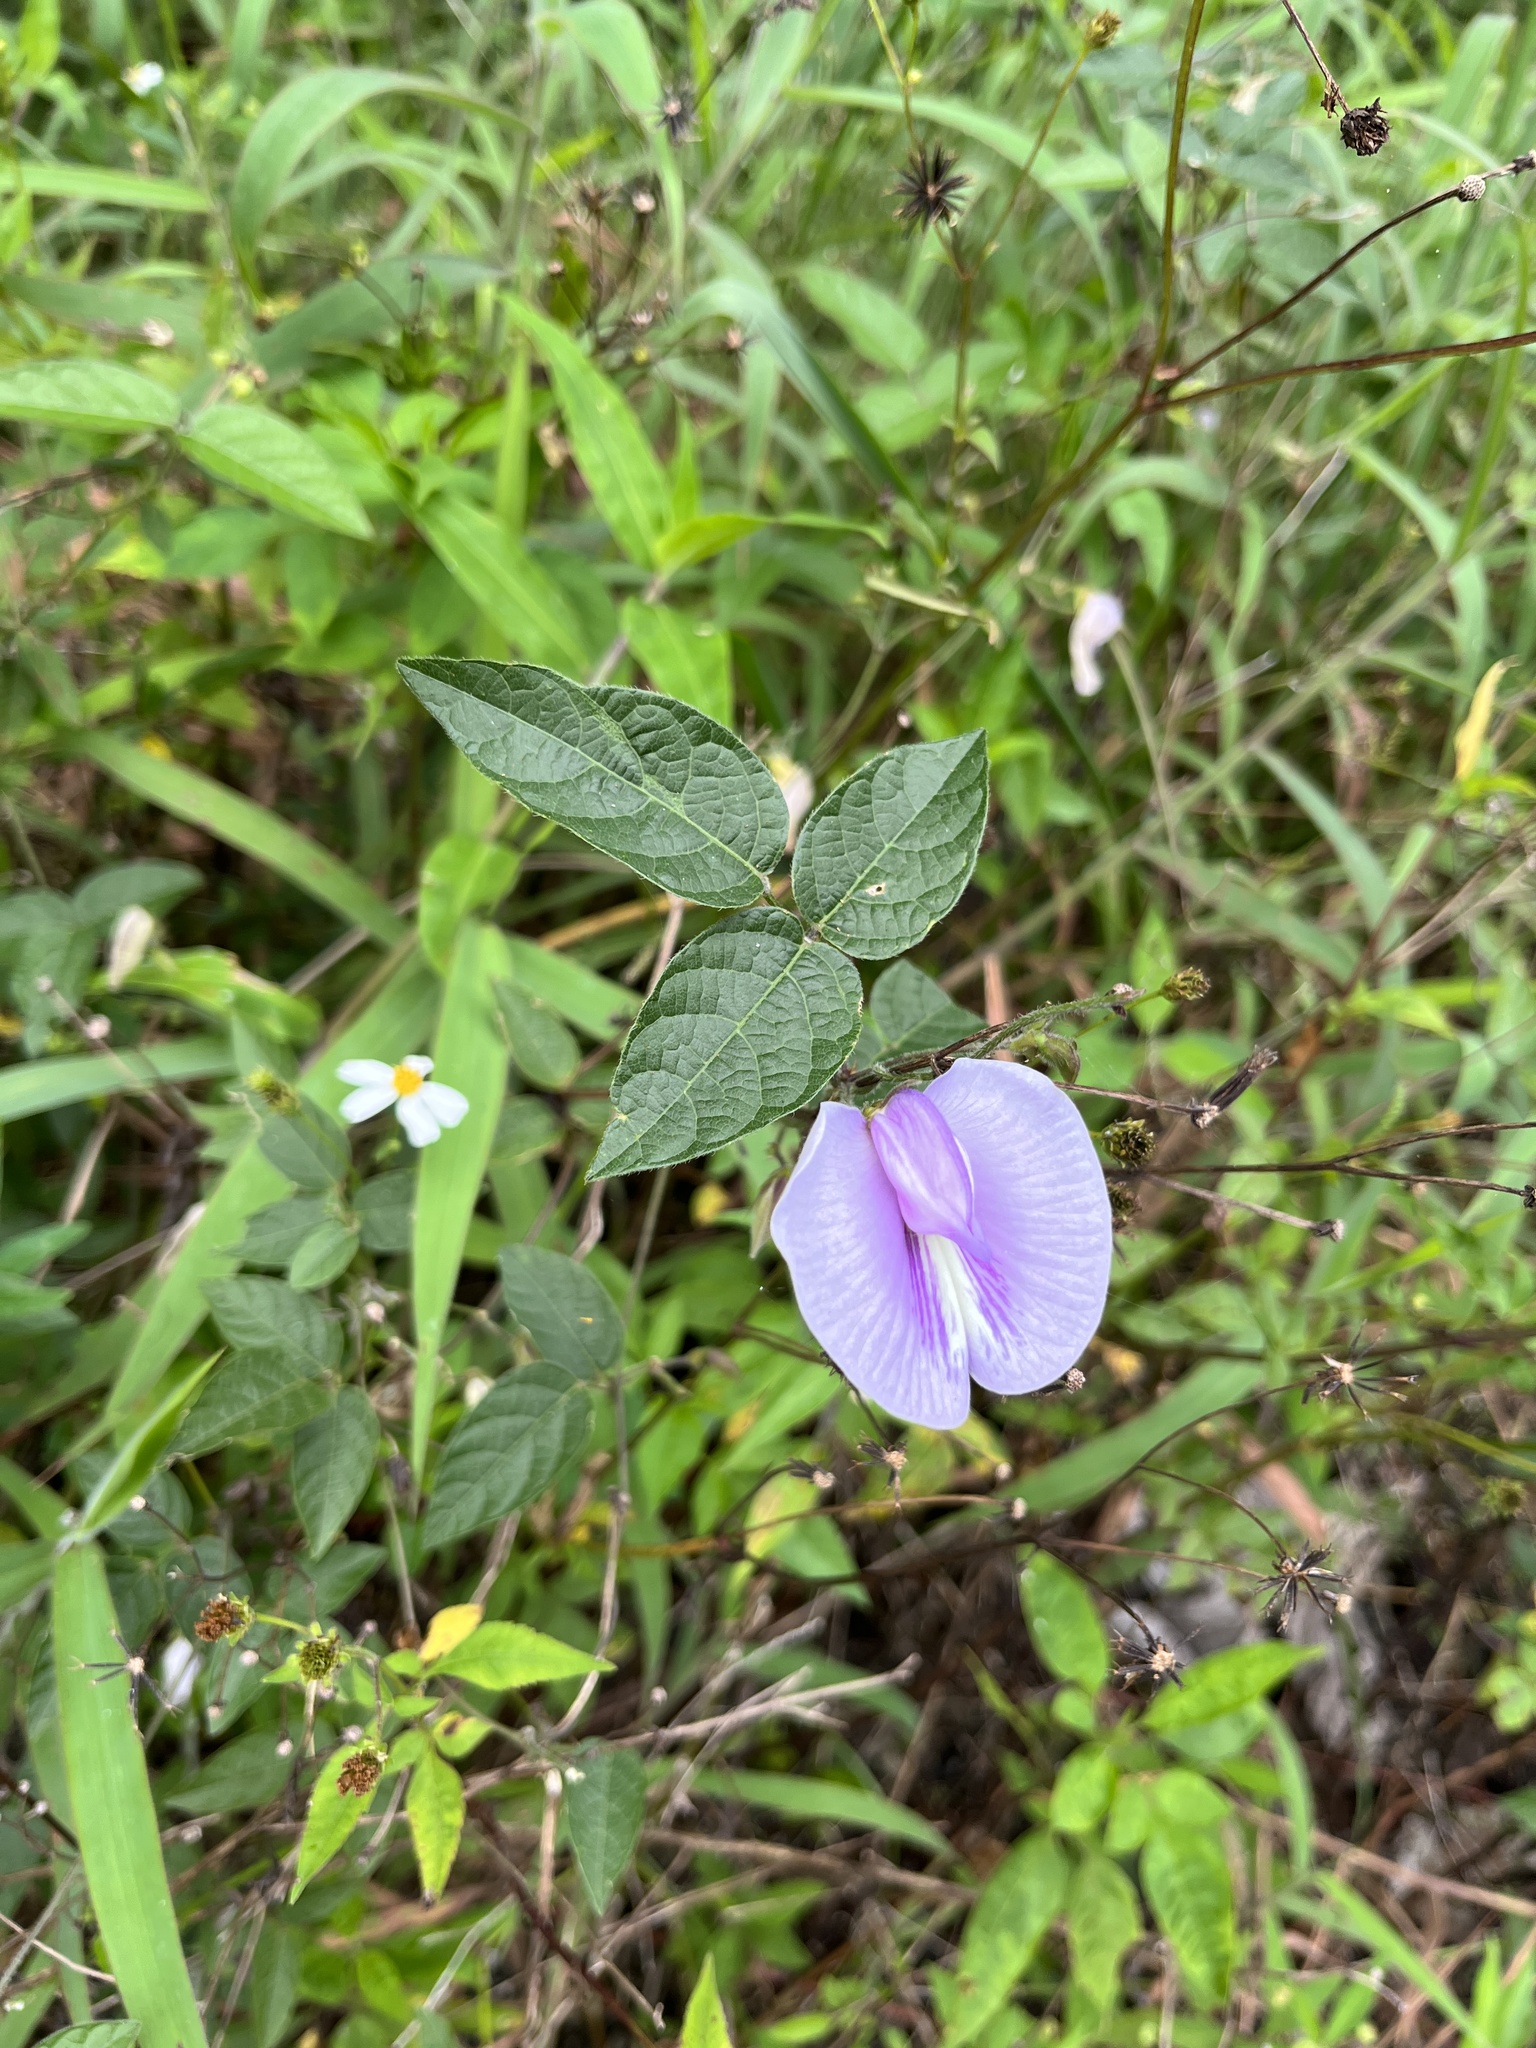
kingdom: Plantae
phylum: Tracheophyta
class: Magnoliopsida
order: Fabales
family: Fabaceae
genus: Centrosema
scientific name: Centrosema virginianum
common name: Butterfly-pea
